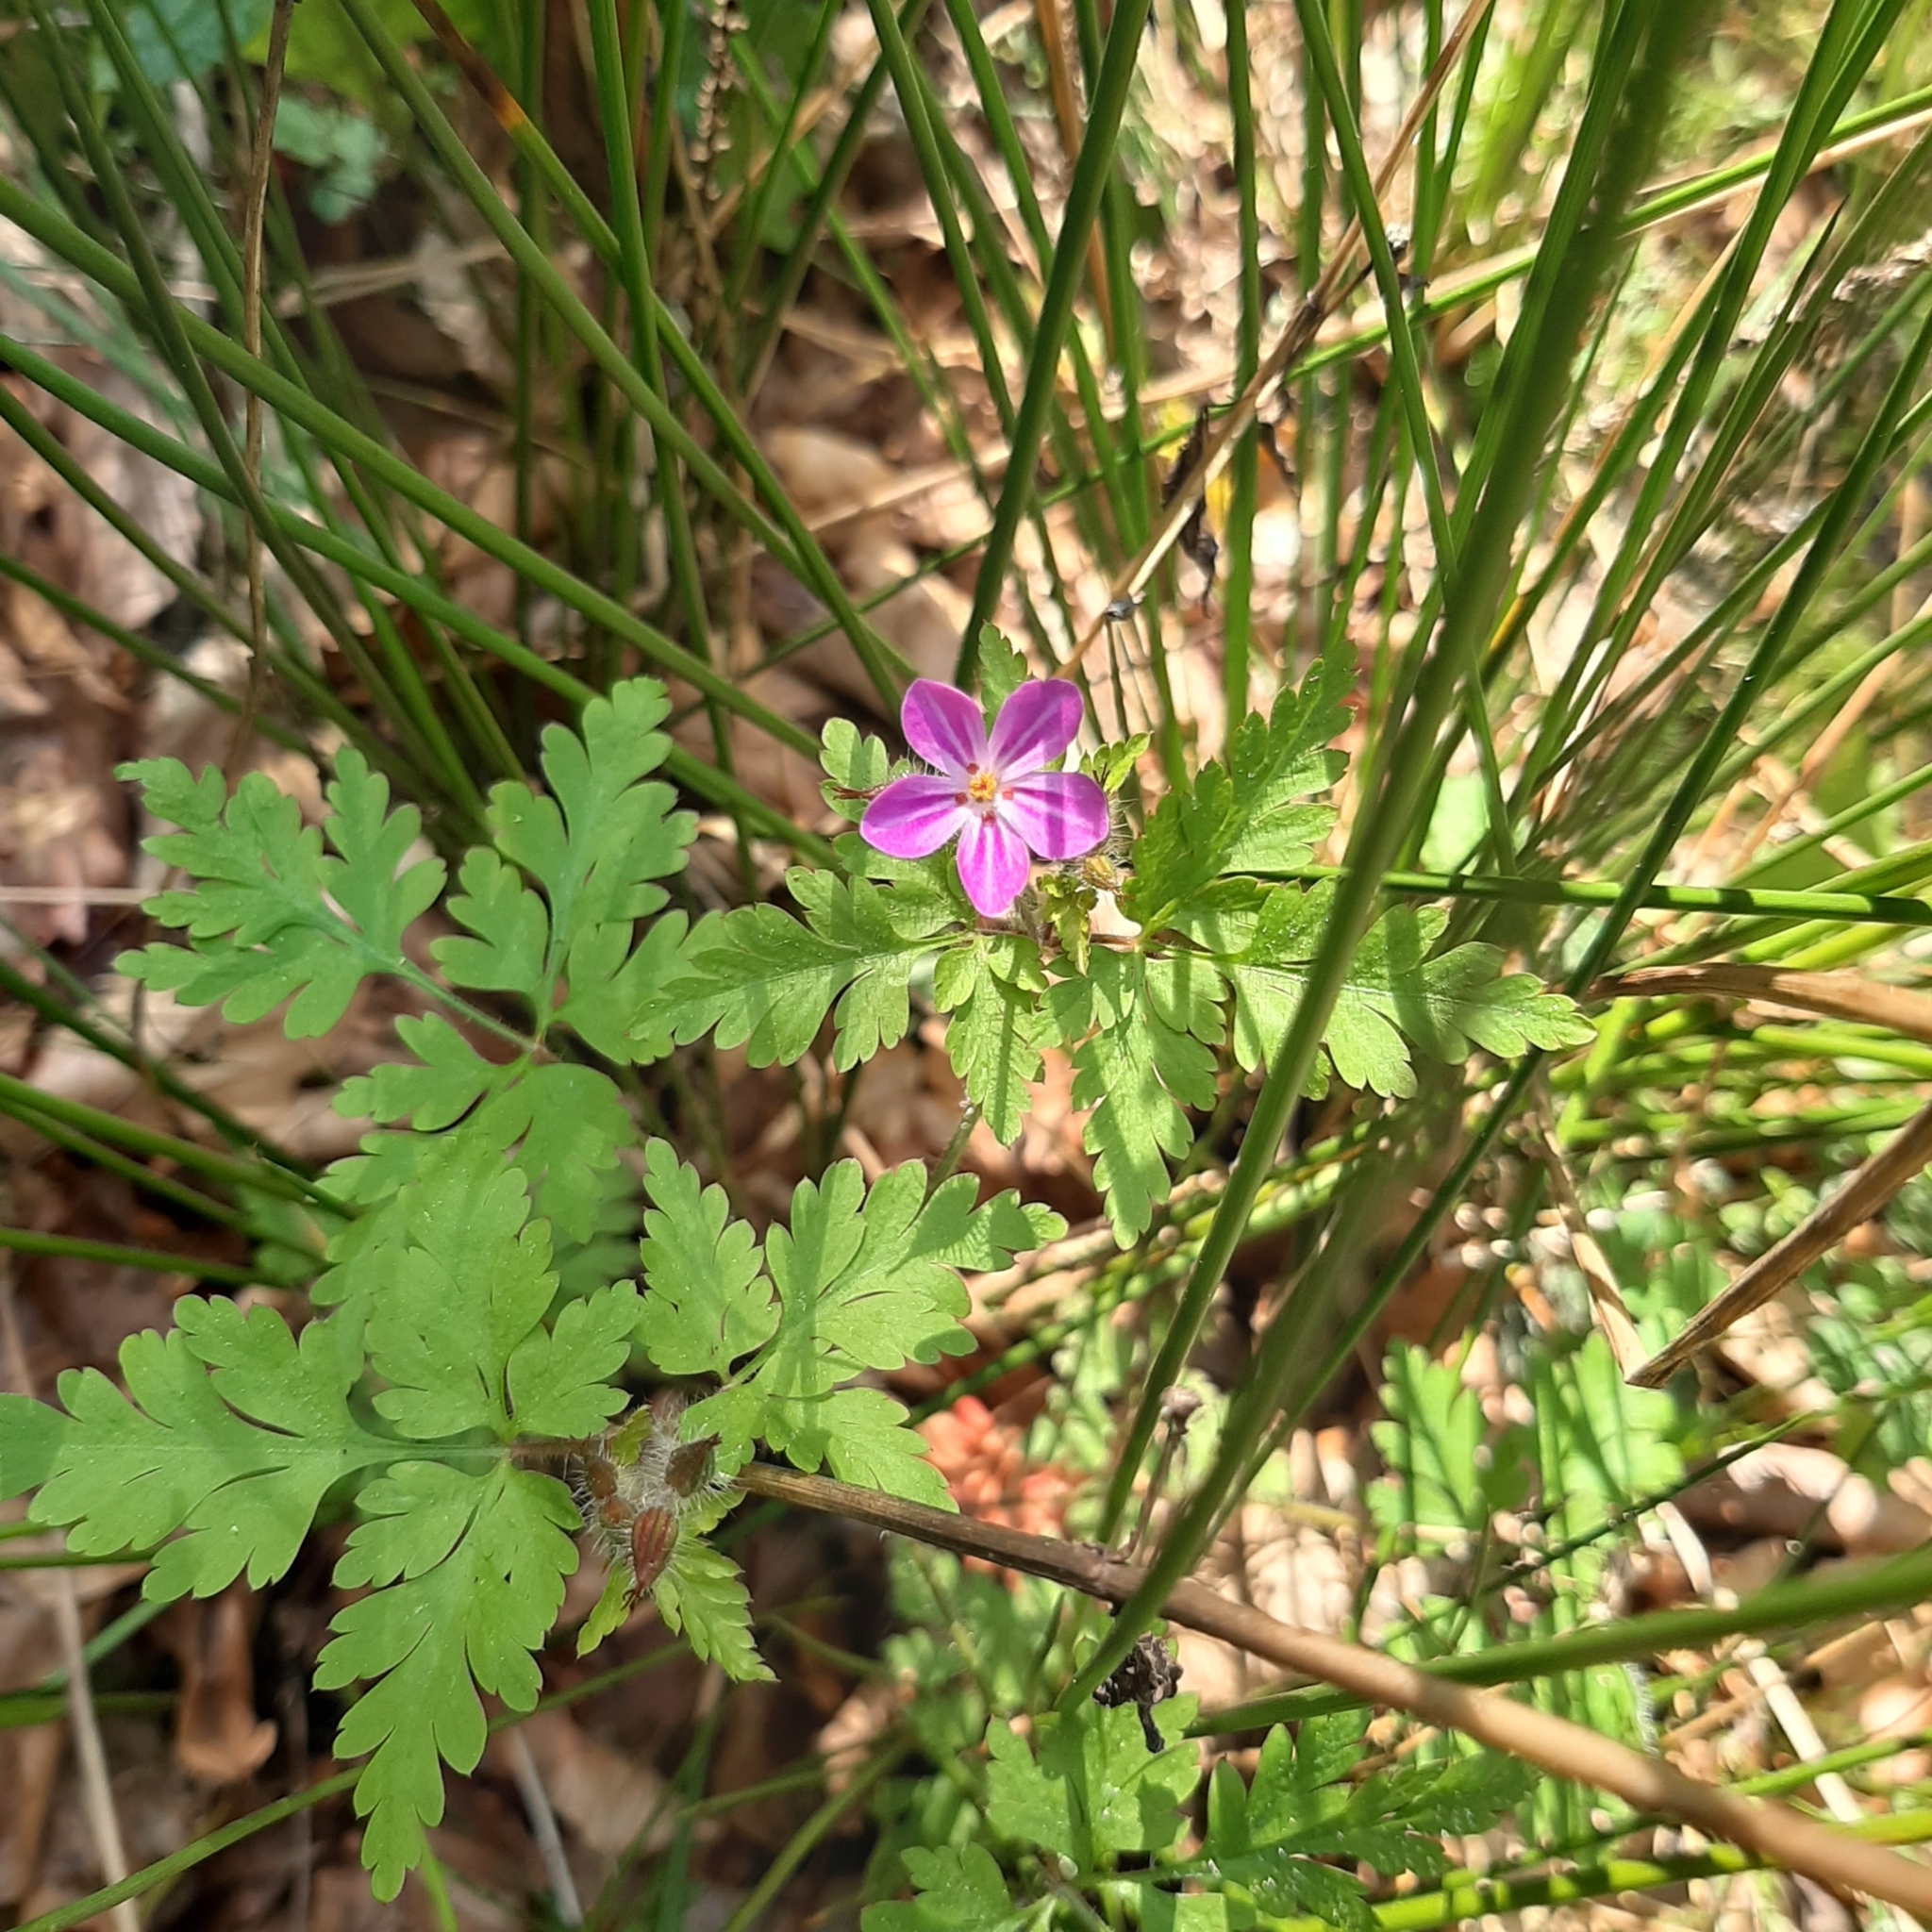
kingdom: Plantae
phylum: Tracheophyta
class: Magnoliopsida
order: Geraniales
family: Geraniaceae
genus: Geranium
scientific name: Geranium robertianum
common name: Herb-robert
